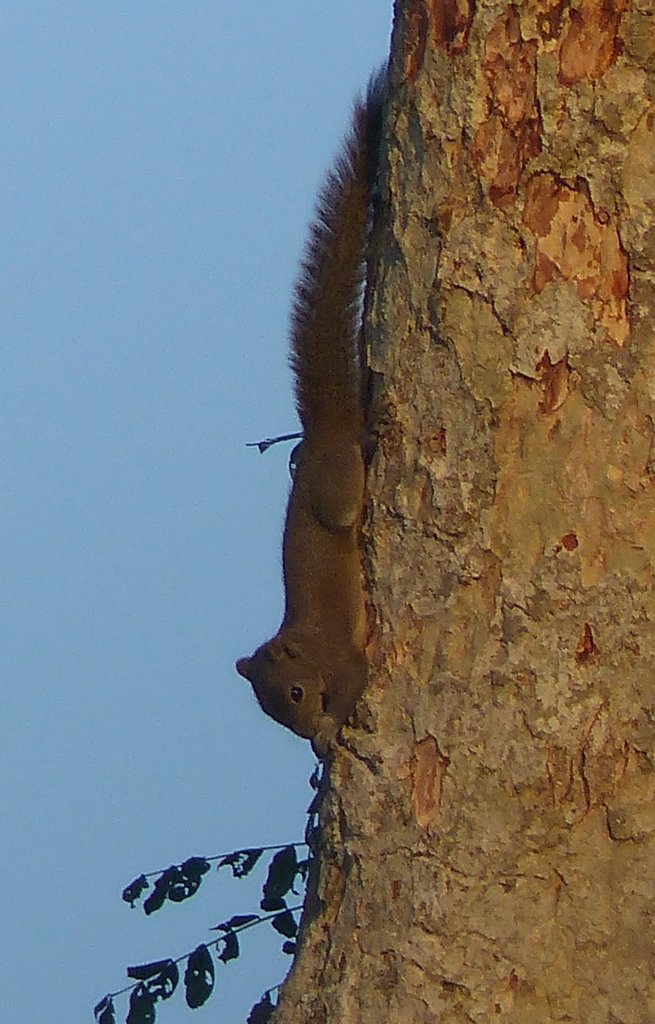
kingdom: Animalia
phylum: Chordata
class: Mammalia
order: Rodentia
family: Sciuridae
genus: Callosciurus
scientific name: Callosciurus pygerythrus
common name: Irrawaddy squirrel
